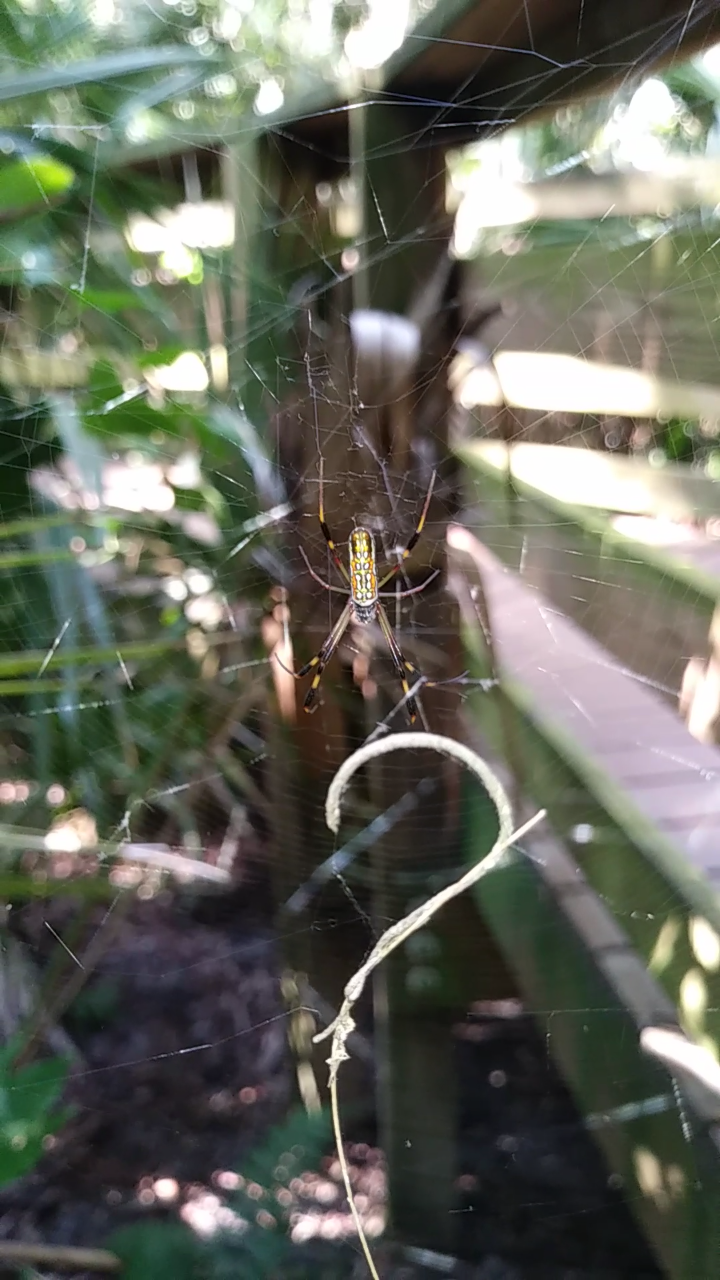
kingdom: Animalia
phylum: Arthropoda
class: Arachnida
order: Araneae
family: Araneidae
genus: Trichonephila
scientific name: Trichonephila clavipes
